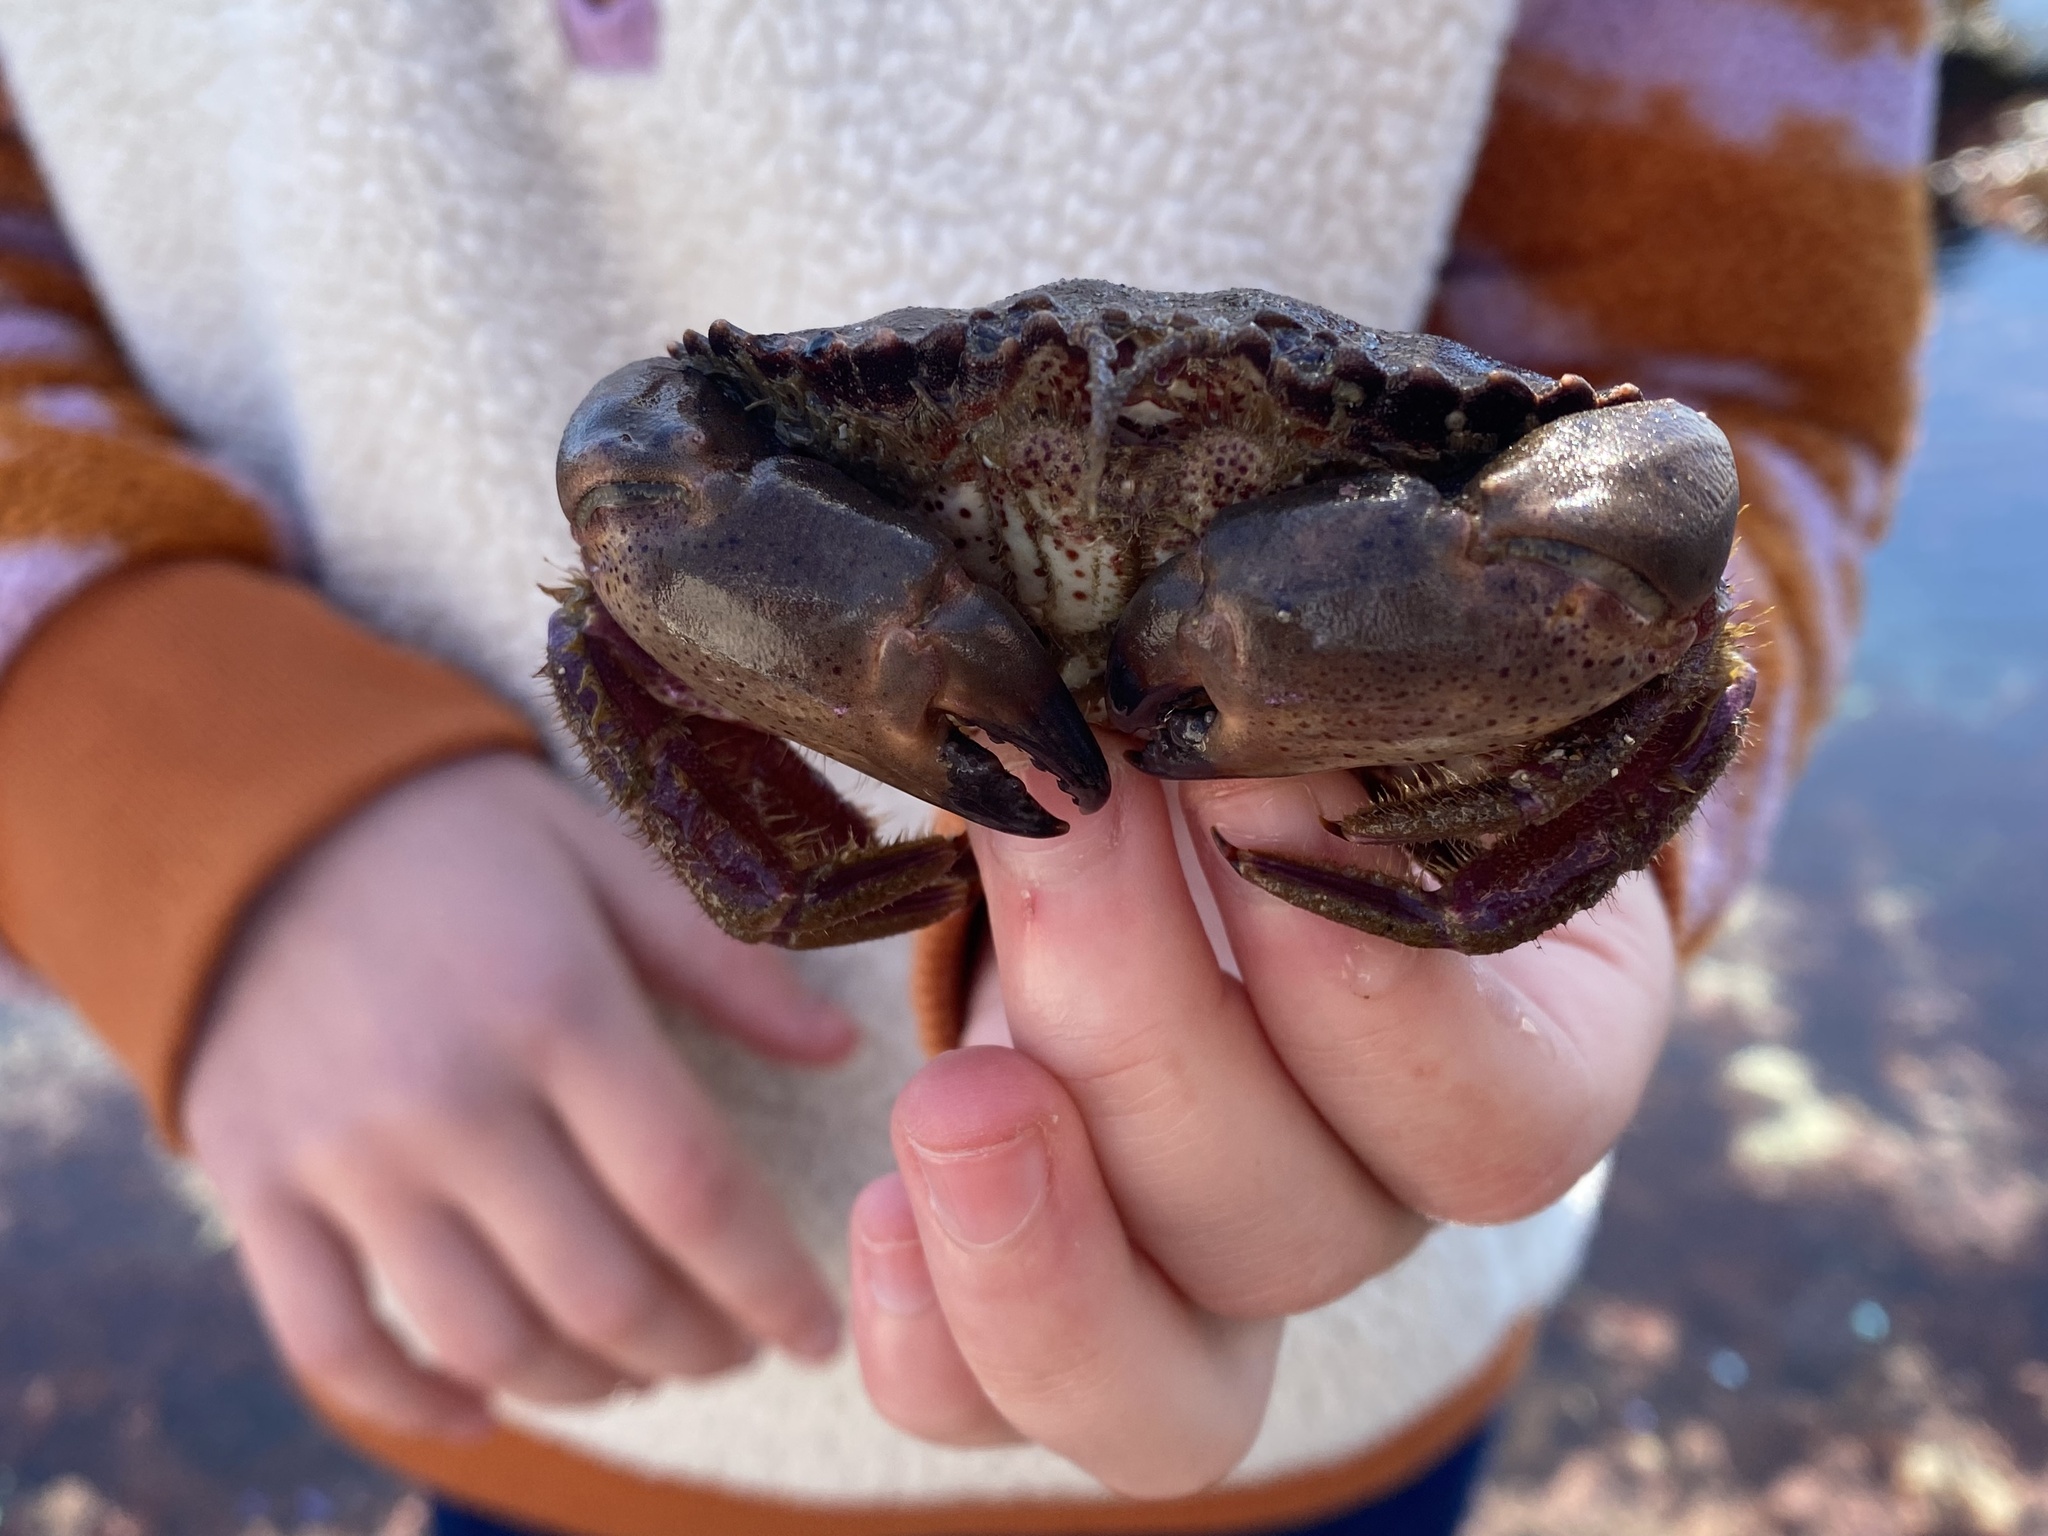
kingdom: Animalia
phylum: Arthropoda
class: Malacostraca
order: Decapoda
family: Cancridae
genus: Romaleon
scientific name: Romaleon antennarium
